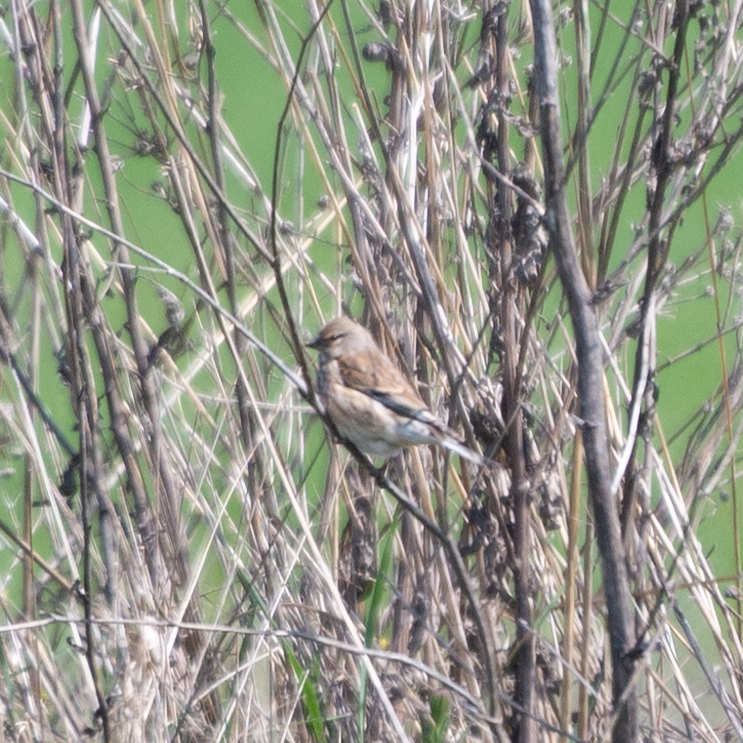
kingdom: Animalia
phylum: Chordata
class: Aves
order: Passeriformes
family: Fringillidae
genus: Linaria
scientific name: Linaria cannabina
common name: Common linnet
